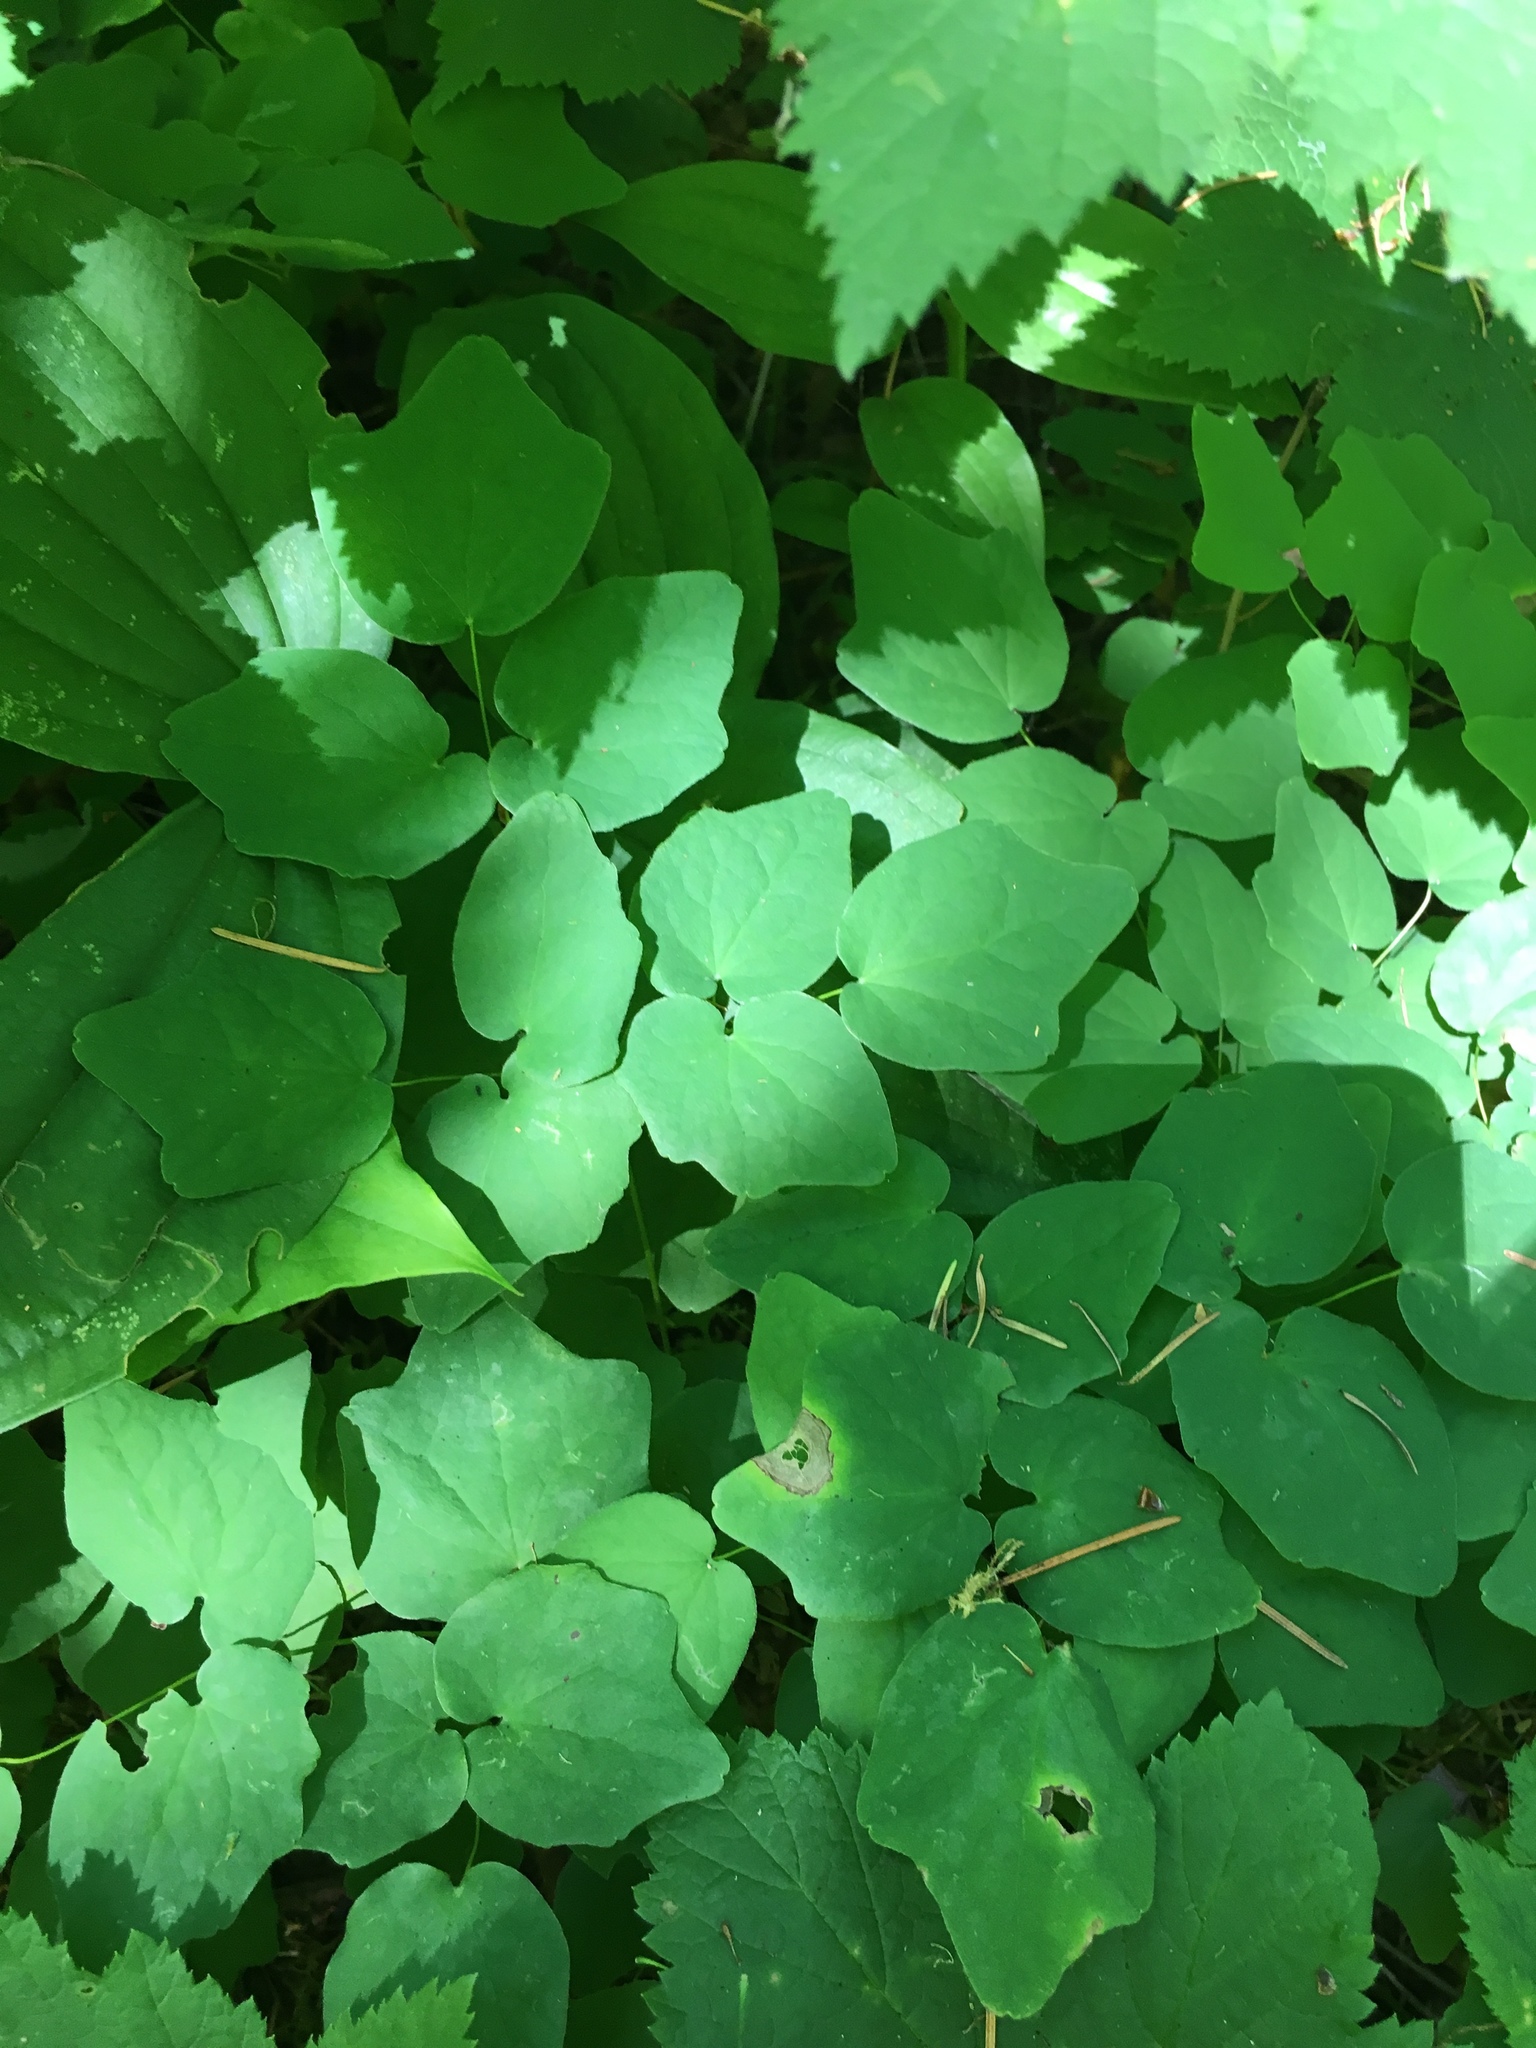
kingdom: Plantae
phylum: Tracheophyta
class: Magnoliopsida
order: Ranunculales
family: Berberidaceae
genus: Vancouveria
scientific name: Vancouveria hexandra
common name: Northern inside-out-flower
